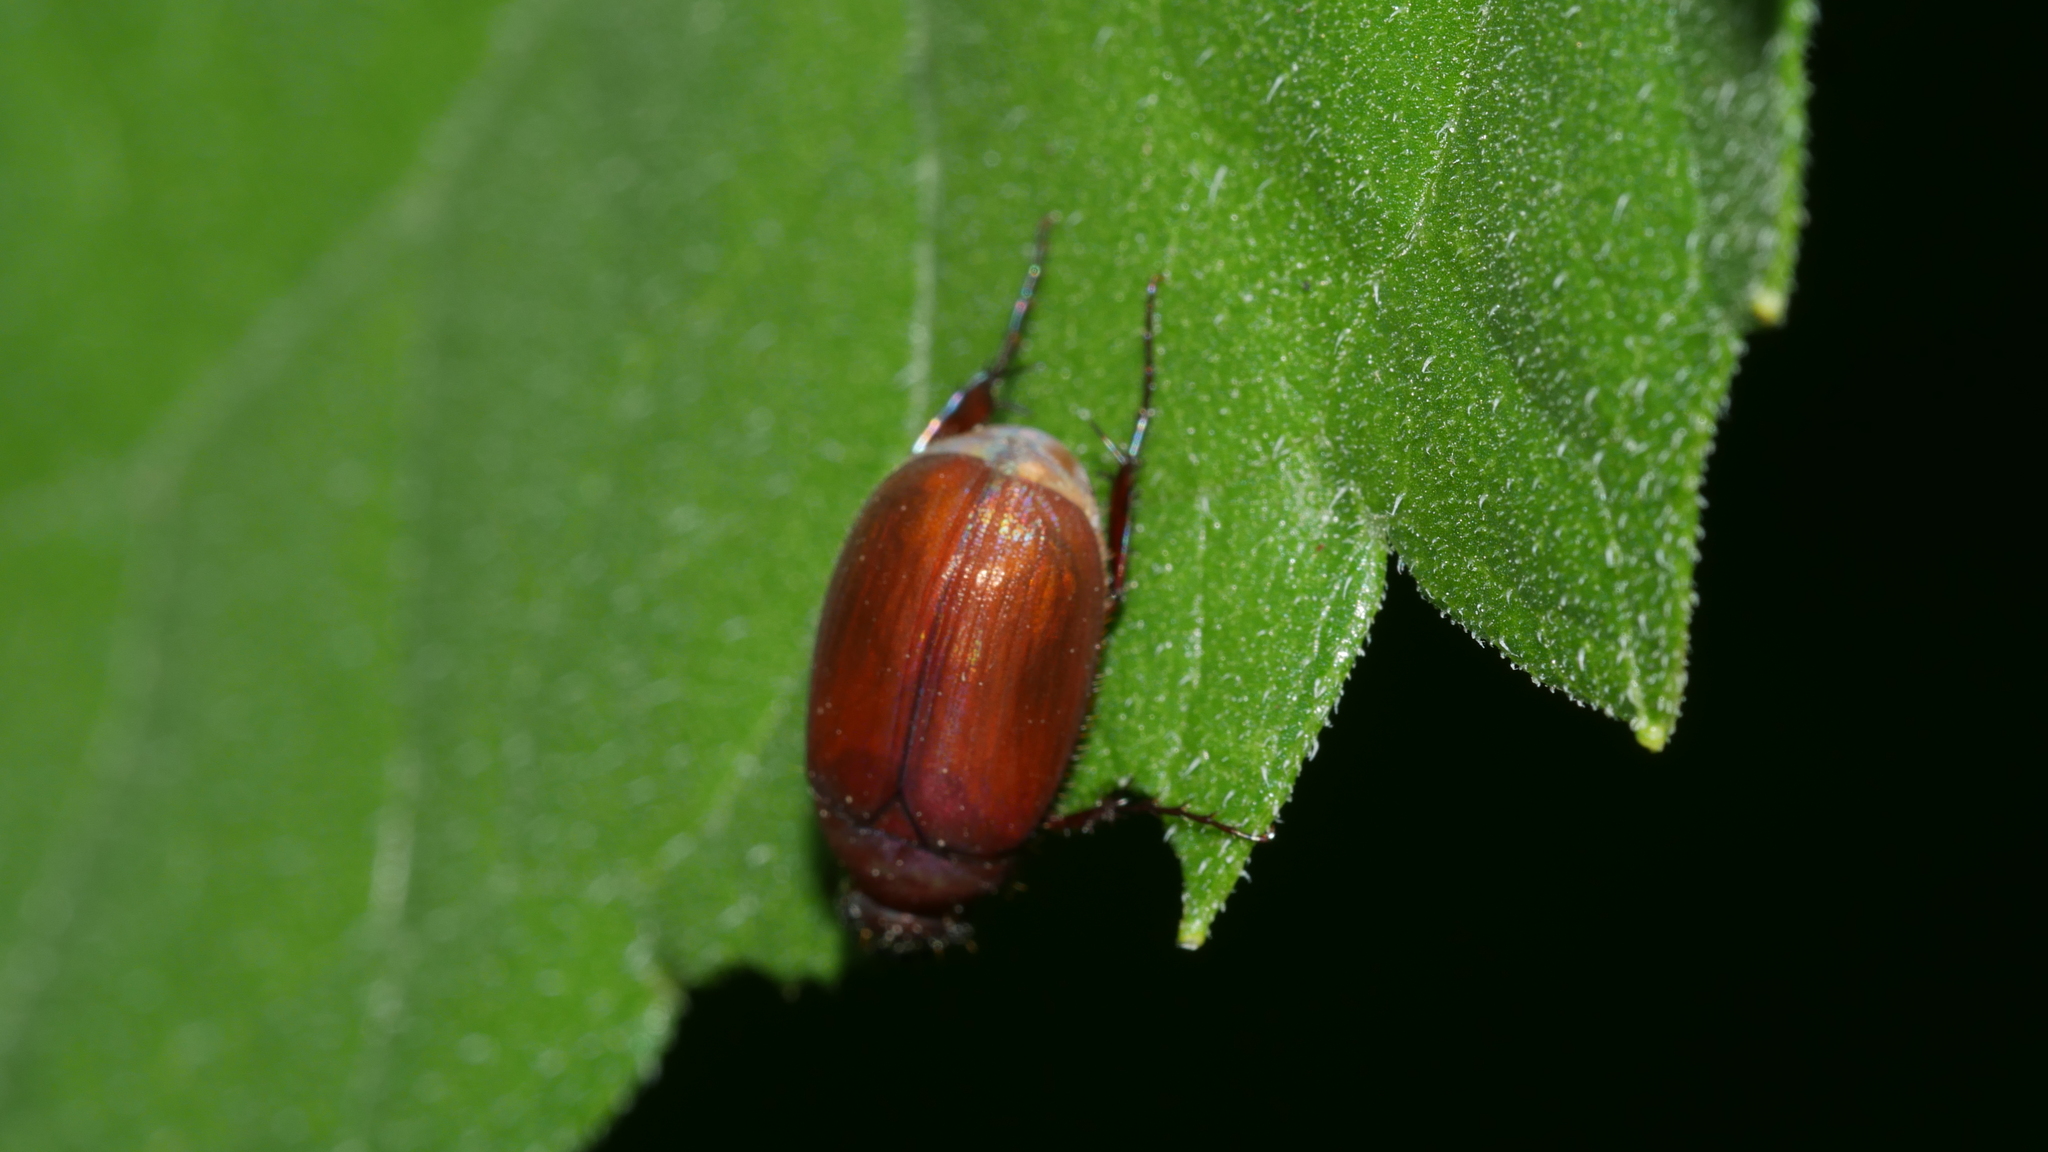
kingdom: Animalia
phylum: Arthropoda
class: Insecta
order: Coleoptera
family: Scarabaeidae
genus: Maladera
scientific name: Maladera formosae
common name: Asiatic garden beetle
